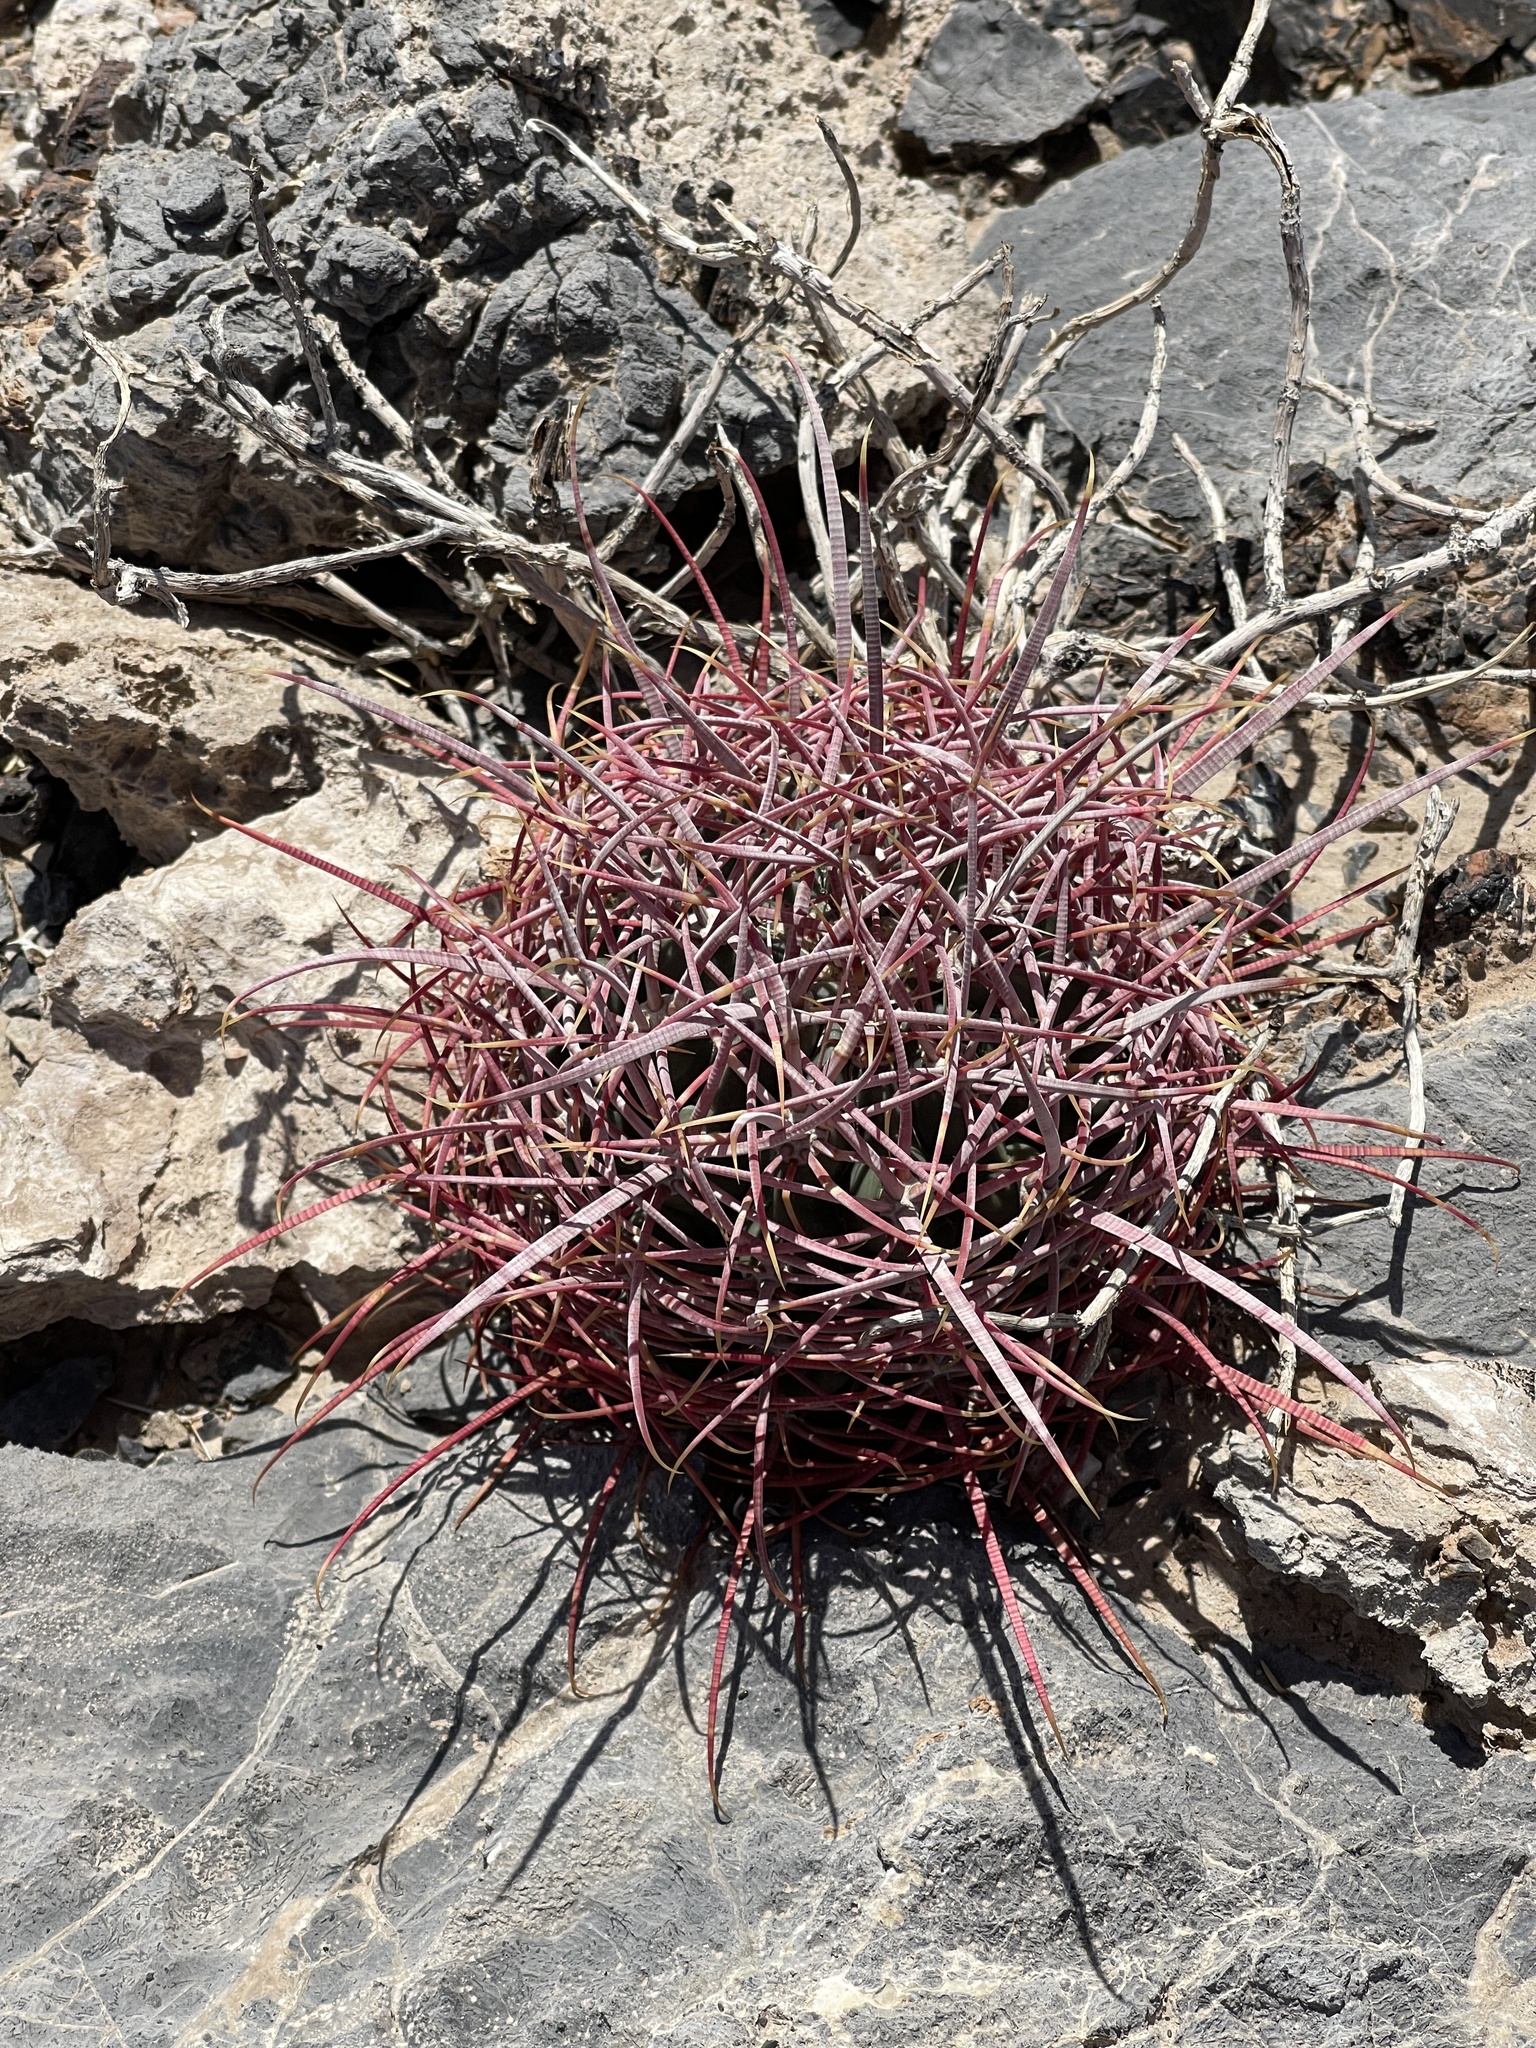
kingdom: Plantae
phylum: Tracheophyta
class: Magnoliopsida
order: Caryophyllales
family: Cactaceae
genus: Ferocactus
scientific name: Ferocactus cylindraceus
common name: California barrel cactus
